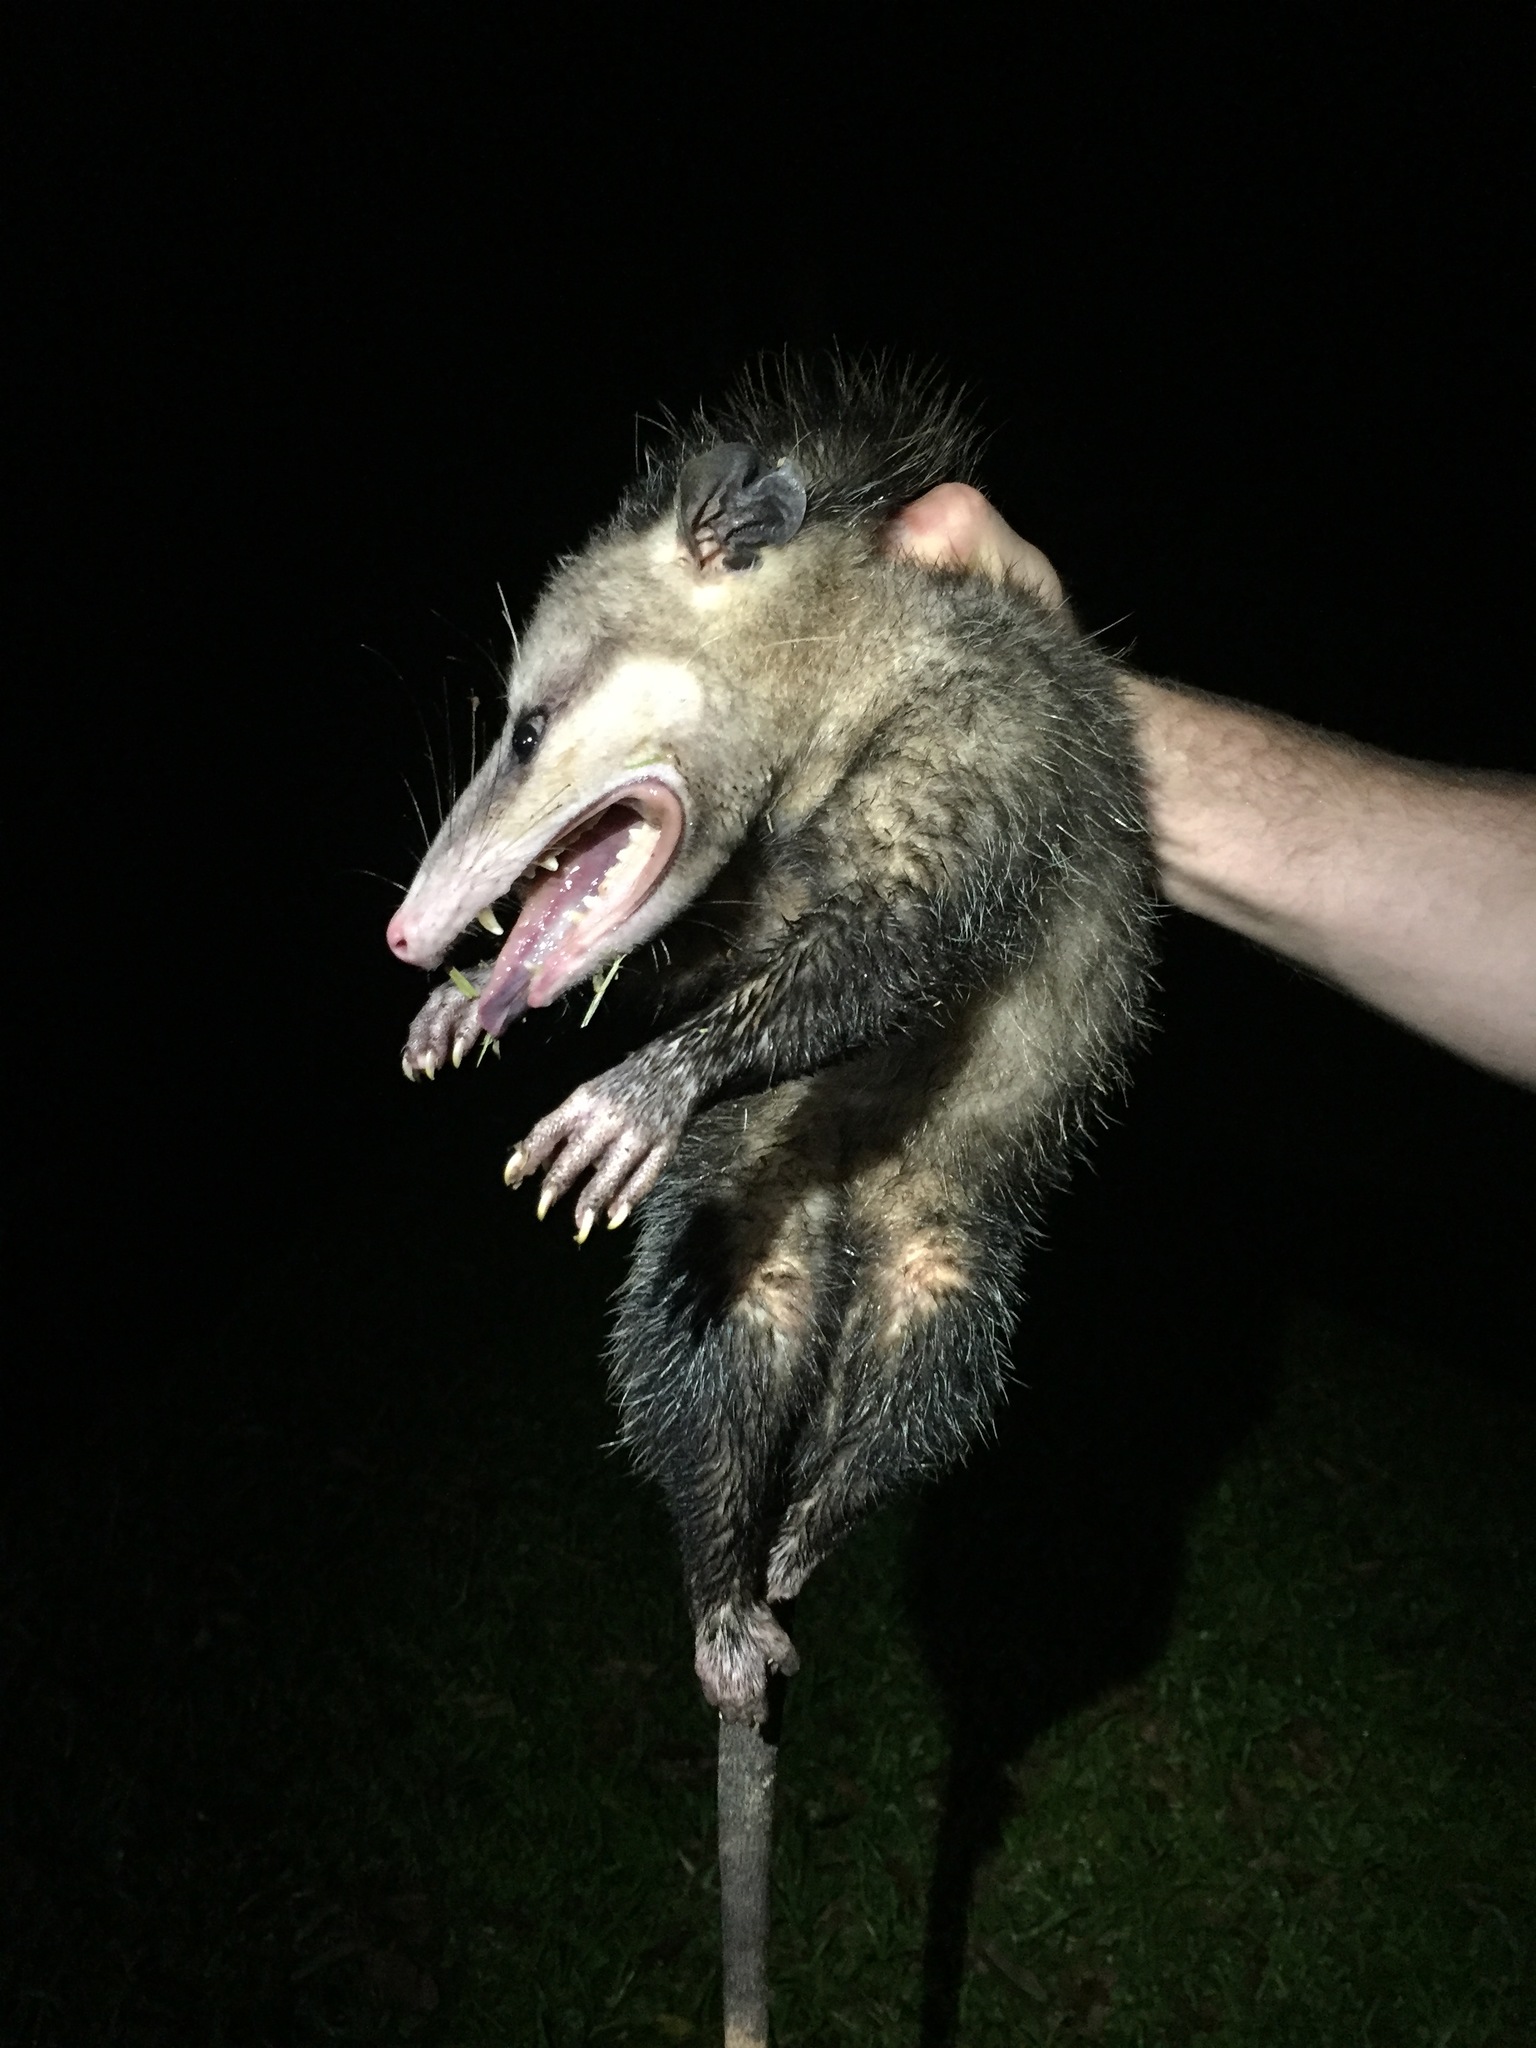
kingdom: Animalia
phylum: Chordata
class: Mammalia
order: Didelphimorphia
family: Didelphidae
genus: Didelphis
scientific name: Didelphis
